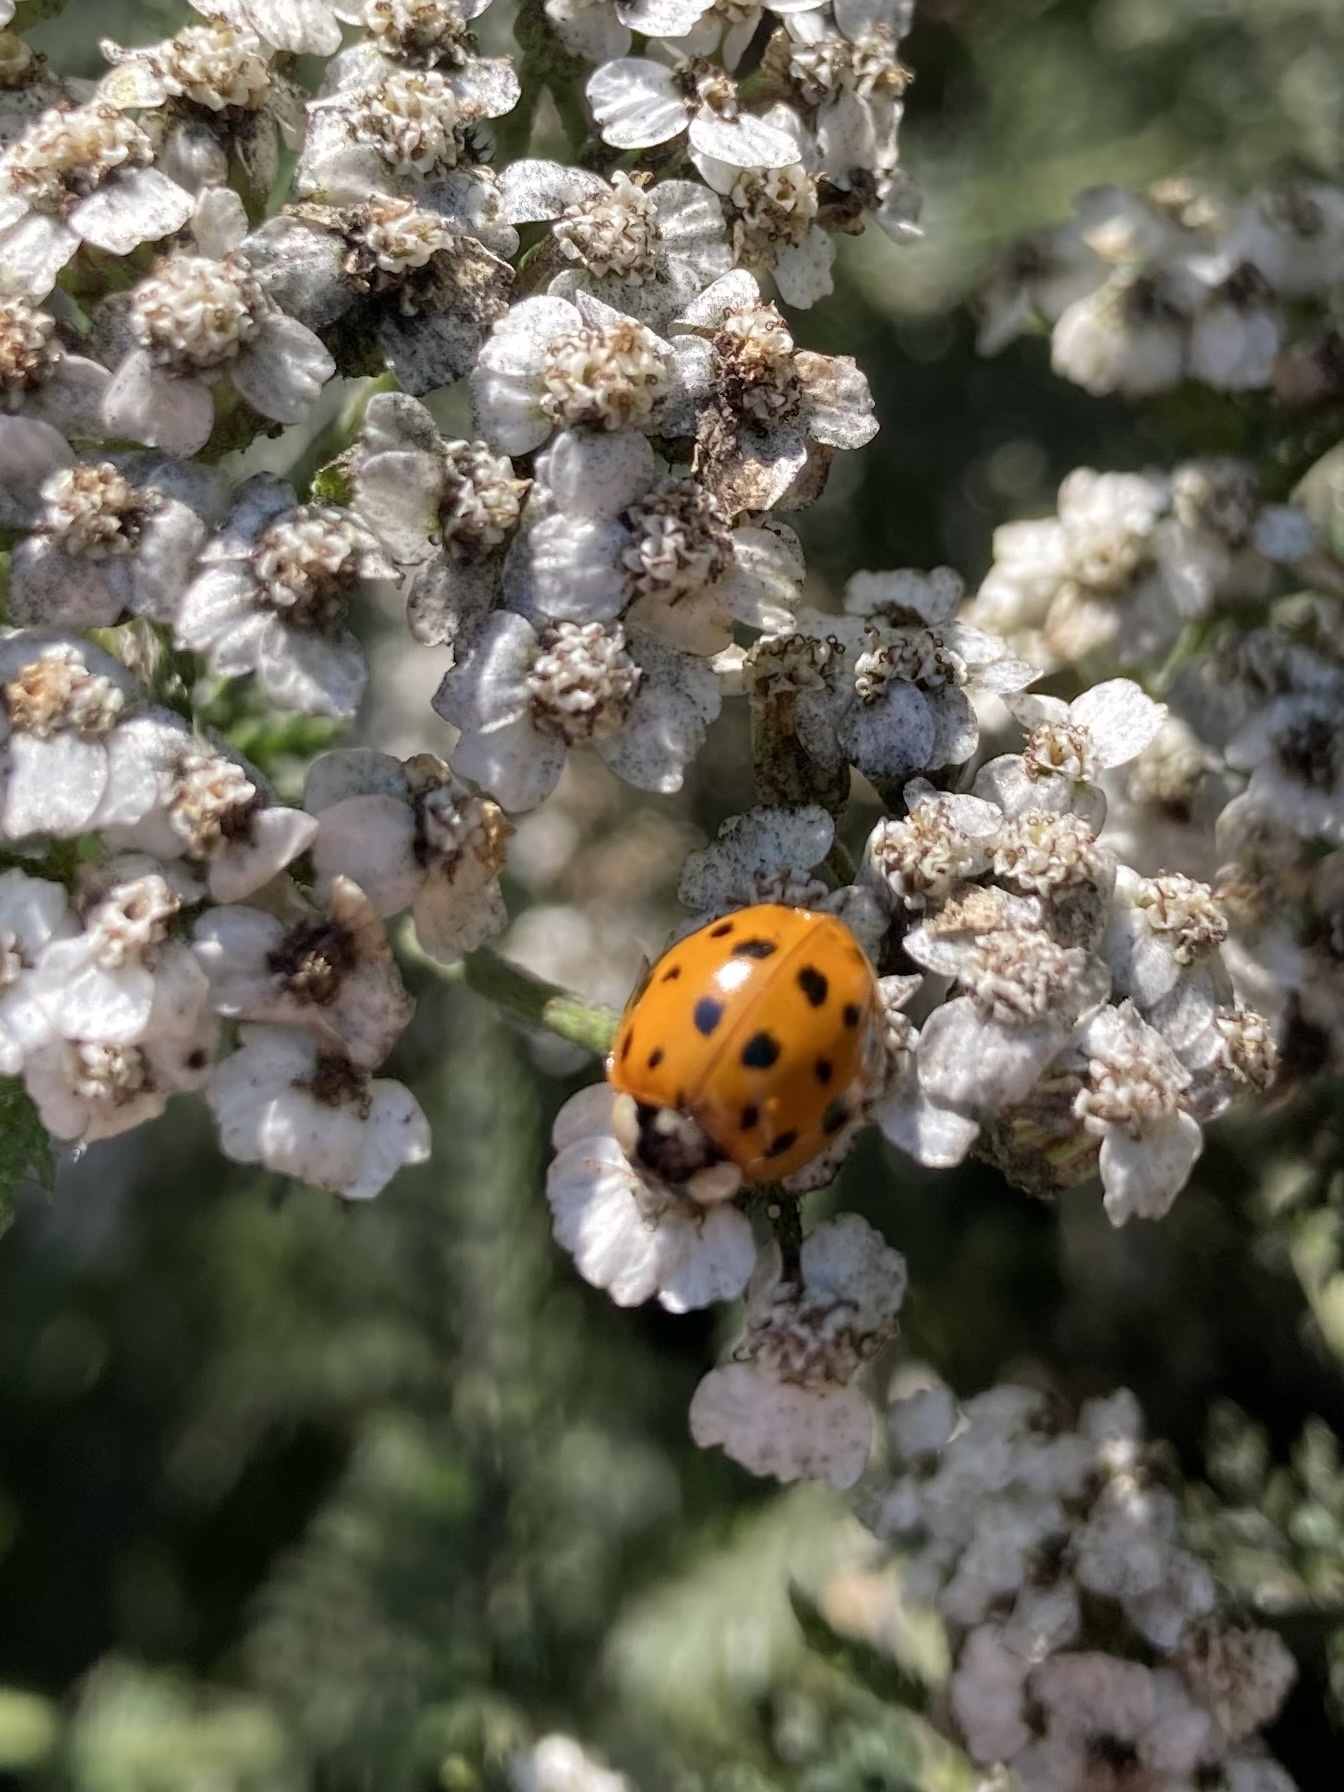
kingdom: Animalia
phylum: Arthropoda
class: Insecta
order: Coleoptera
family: Coccinellidae
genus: Harmonia
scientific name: Harmonia axyridis
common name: Harlequin ladybird
